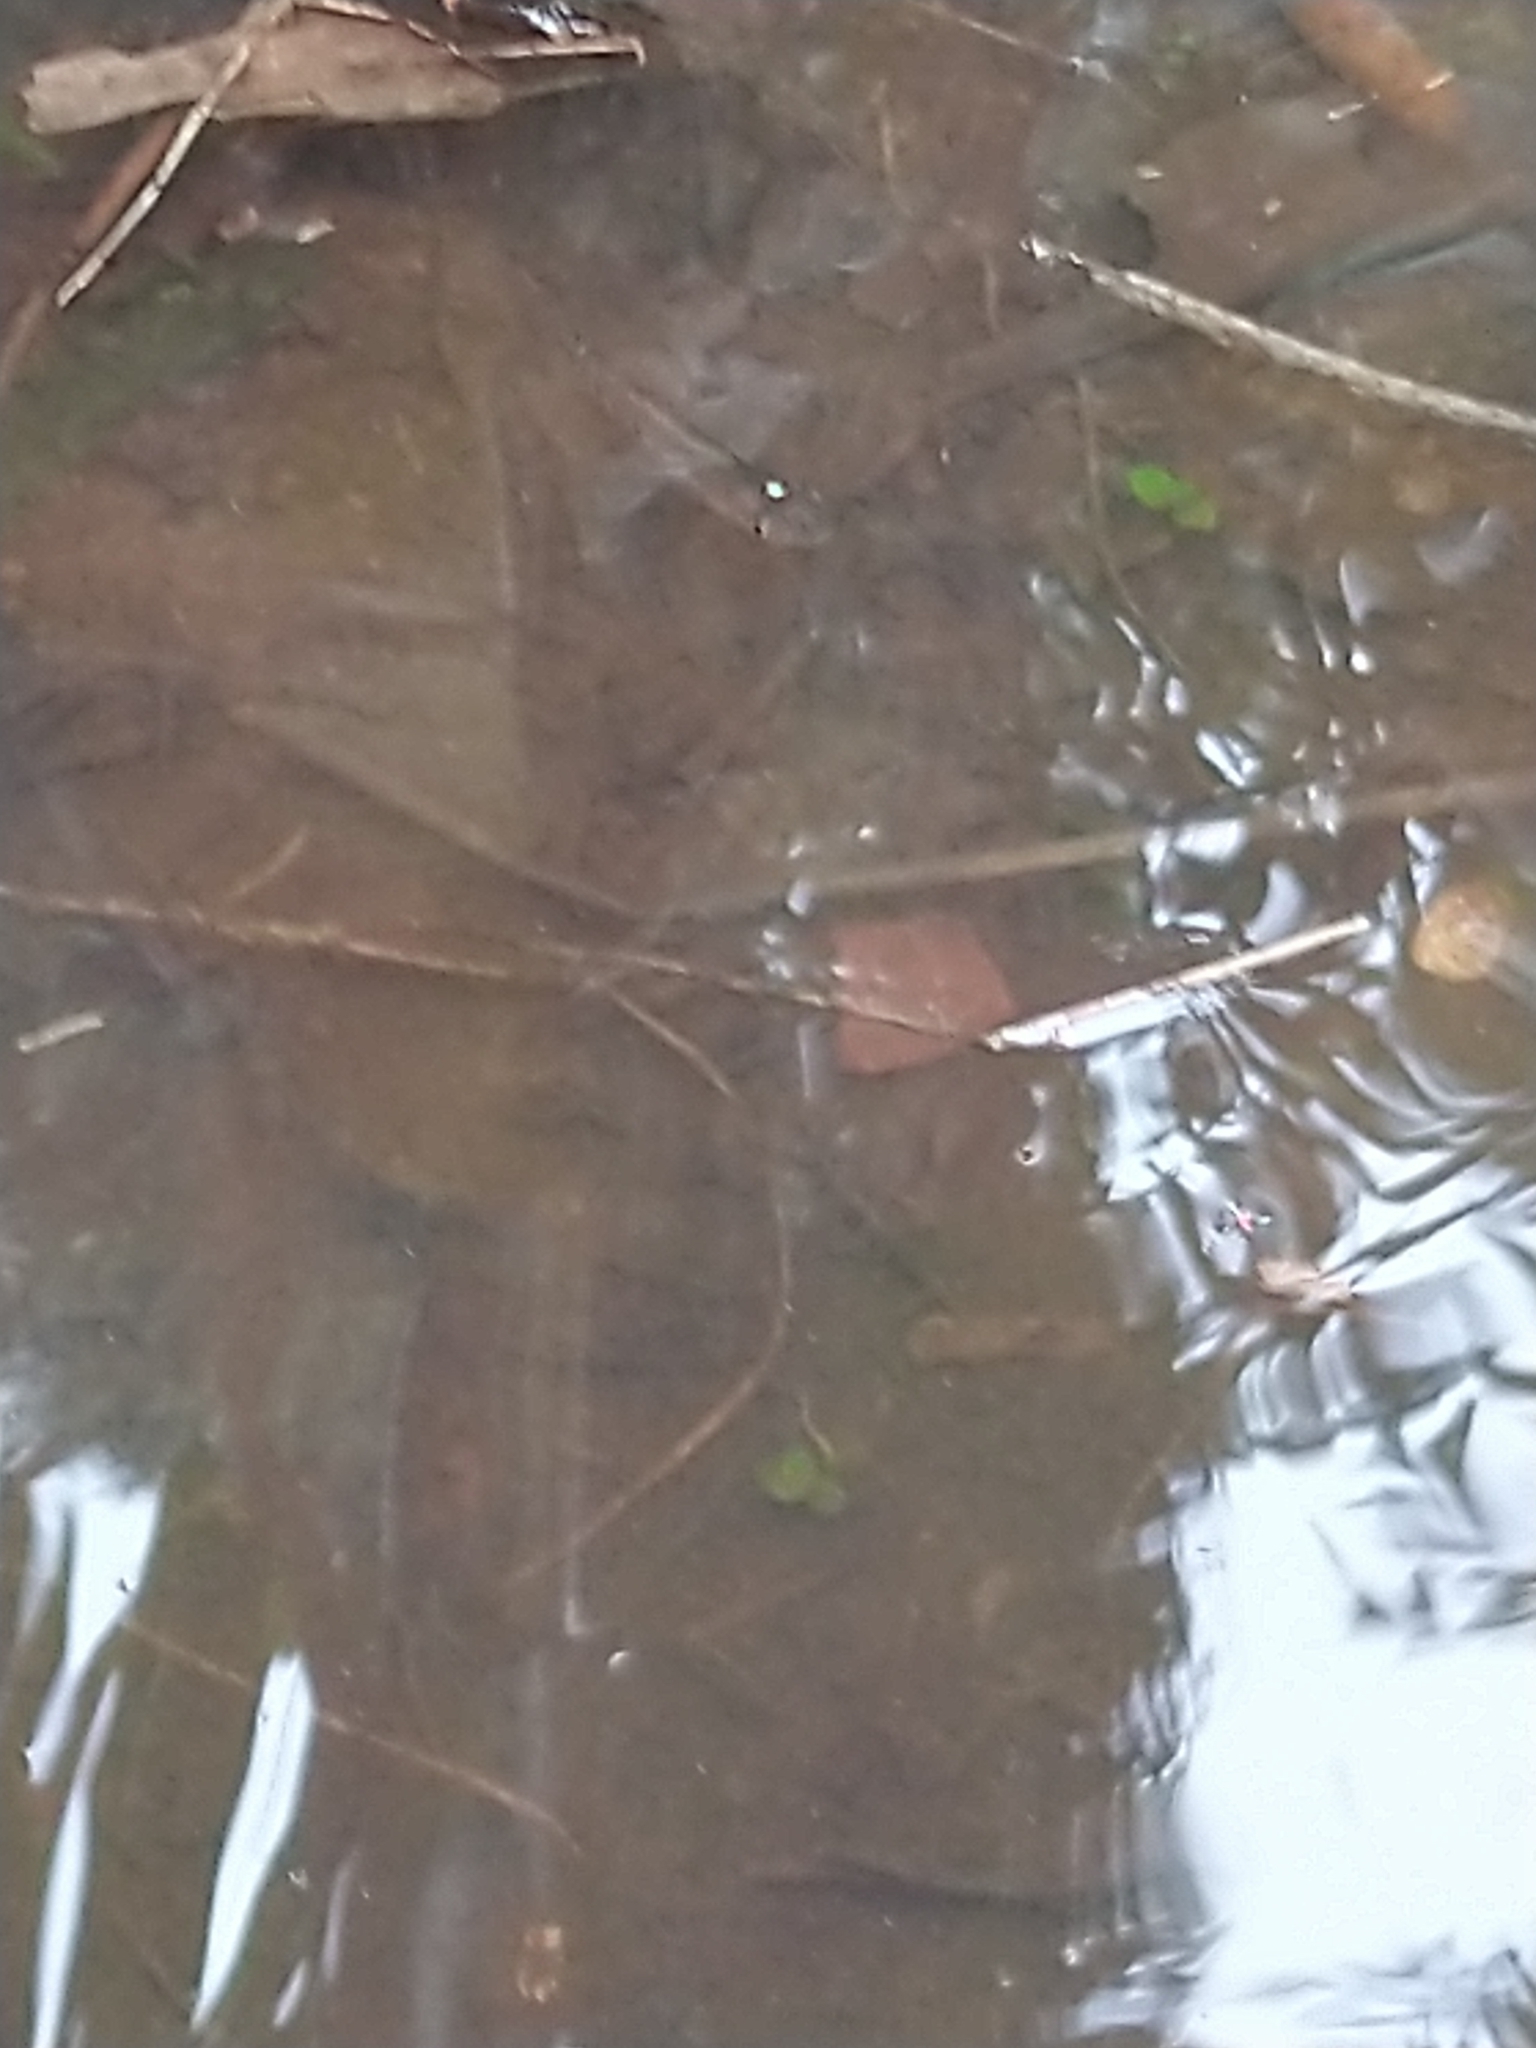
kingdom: Animalia
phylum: Chordata
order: Cyprinodontiformes
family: Aplocheilidae
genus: Aplocheilus
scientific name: Aplocheilus lineatus
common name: Striped panchax
